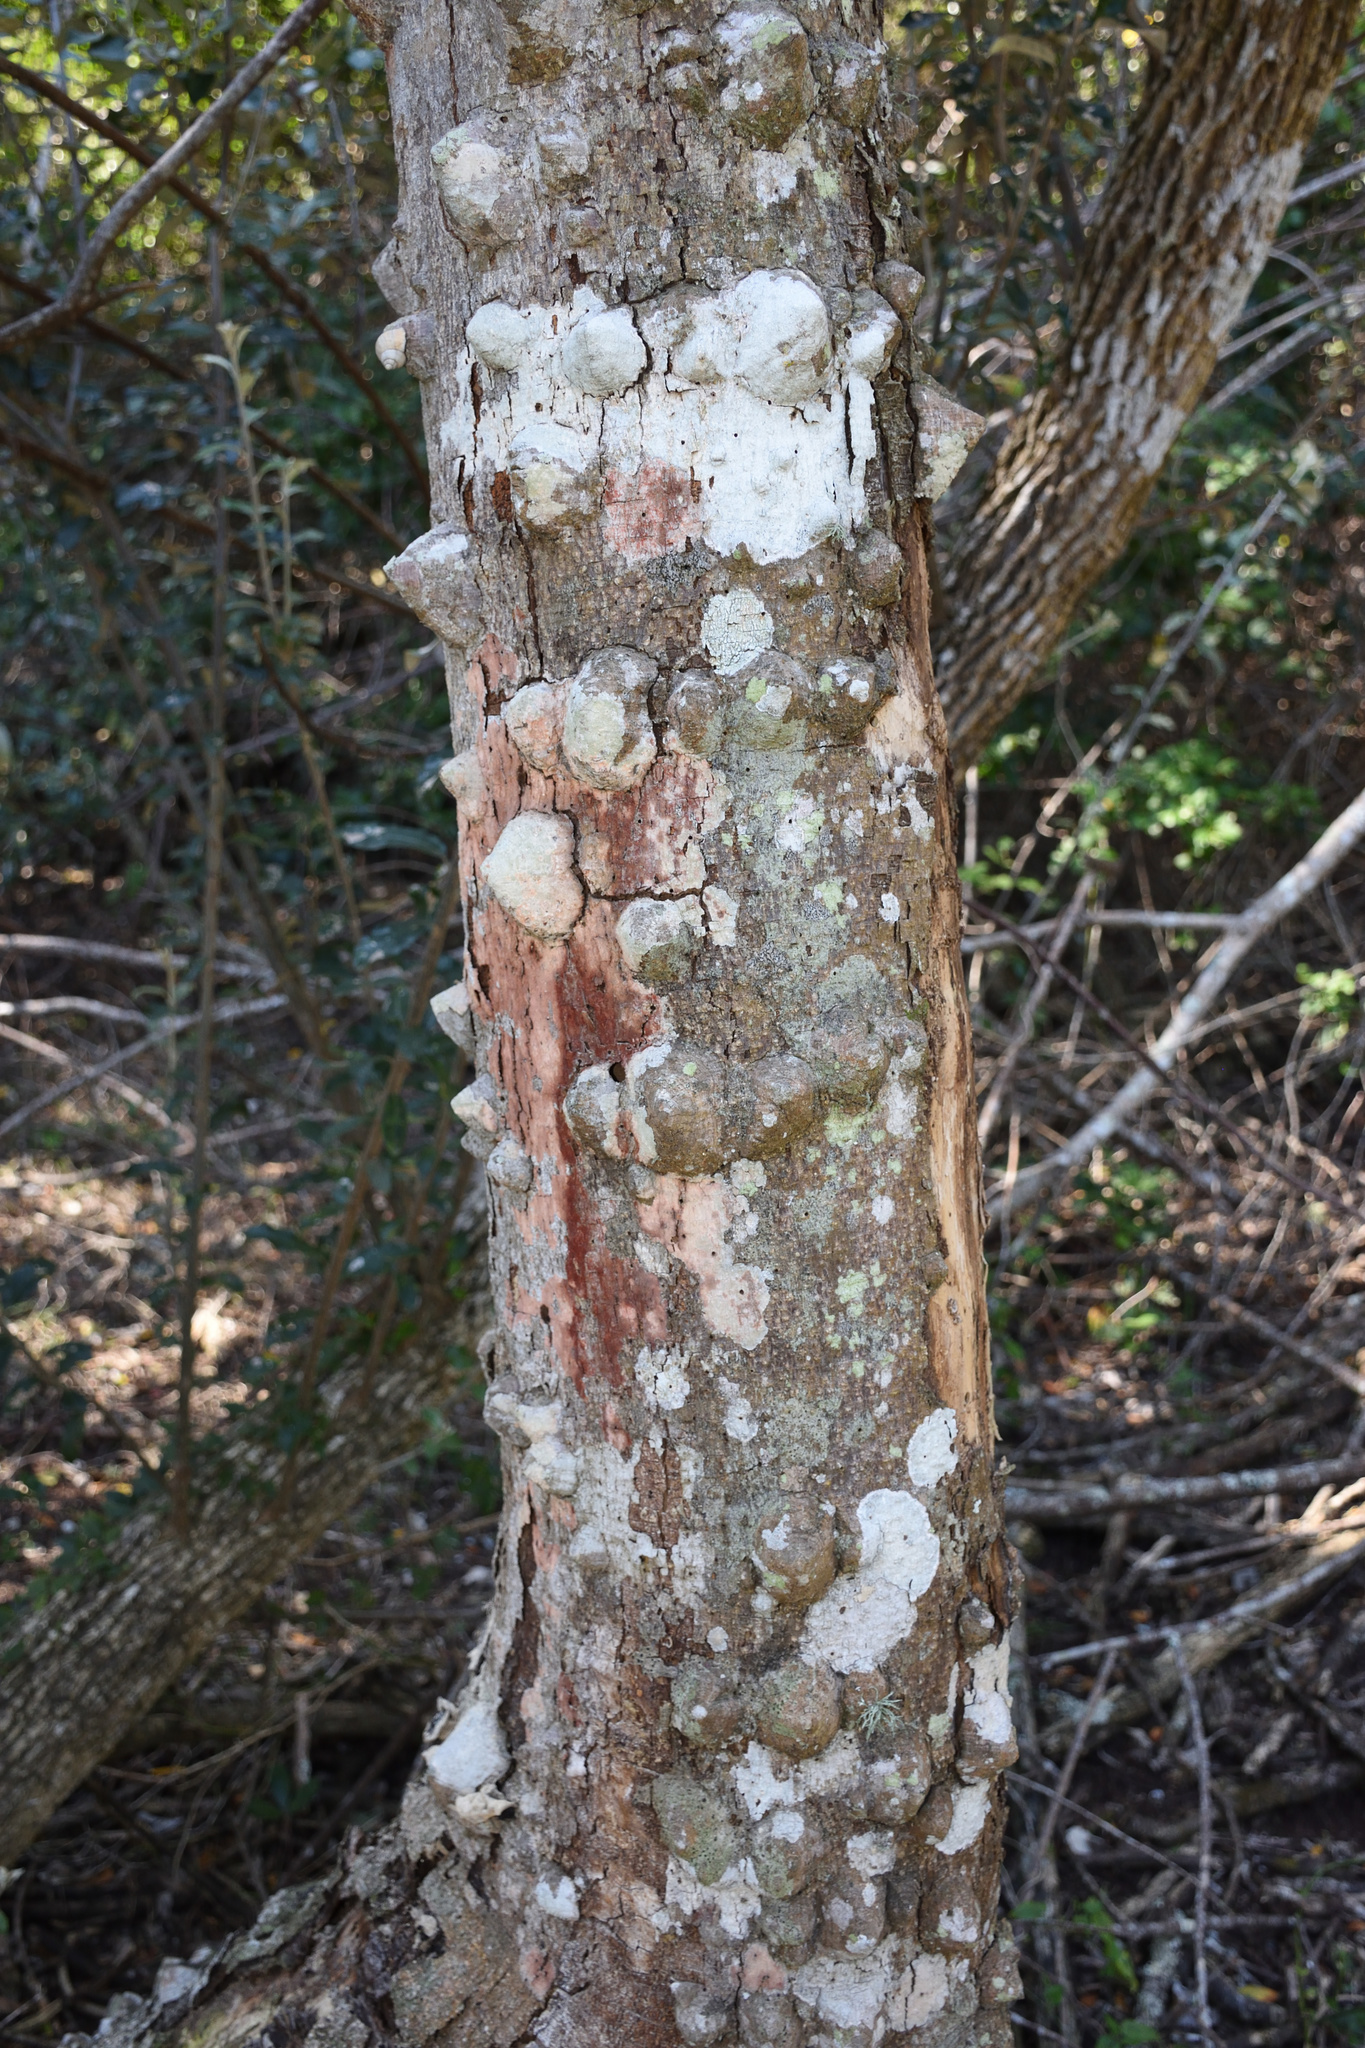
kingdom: Plantae
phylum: Tracheophyta
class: Magnoliopsida
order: Sapindales
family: Rutaceae
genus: Zanthoxylum
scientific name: Zanthoxylum capense
